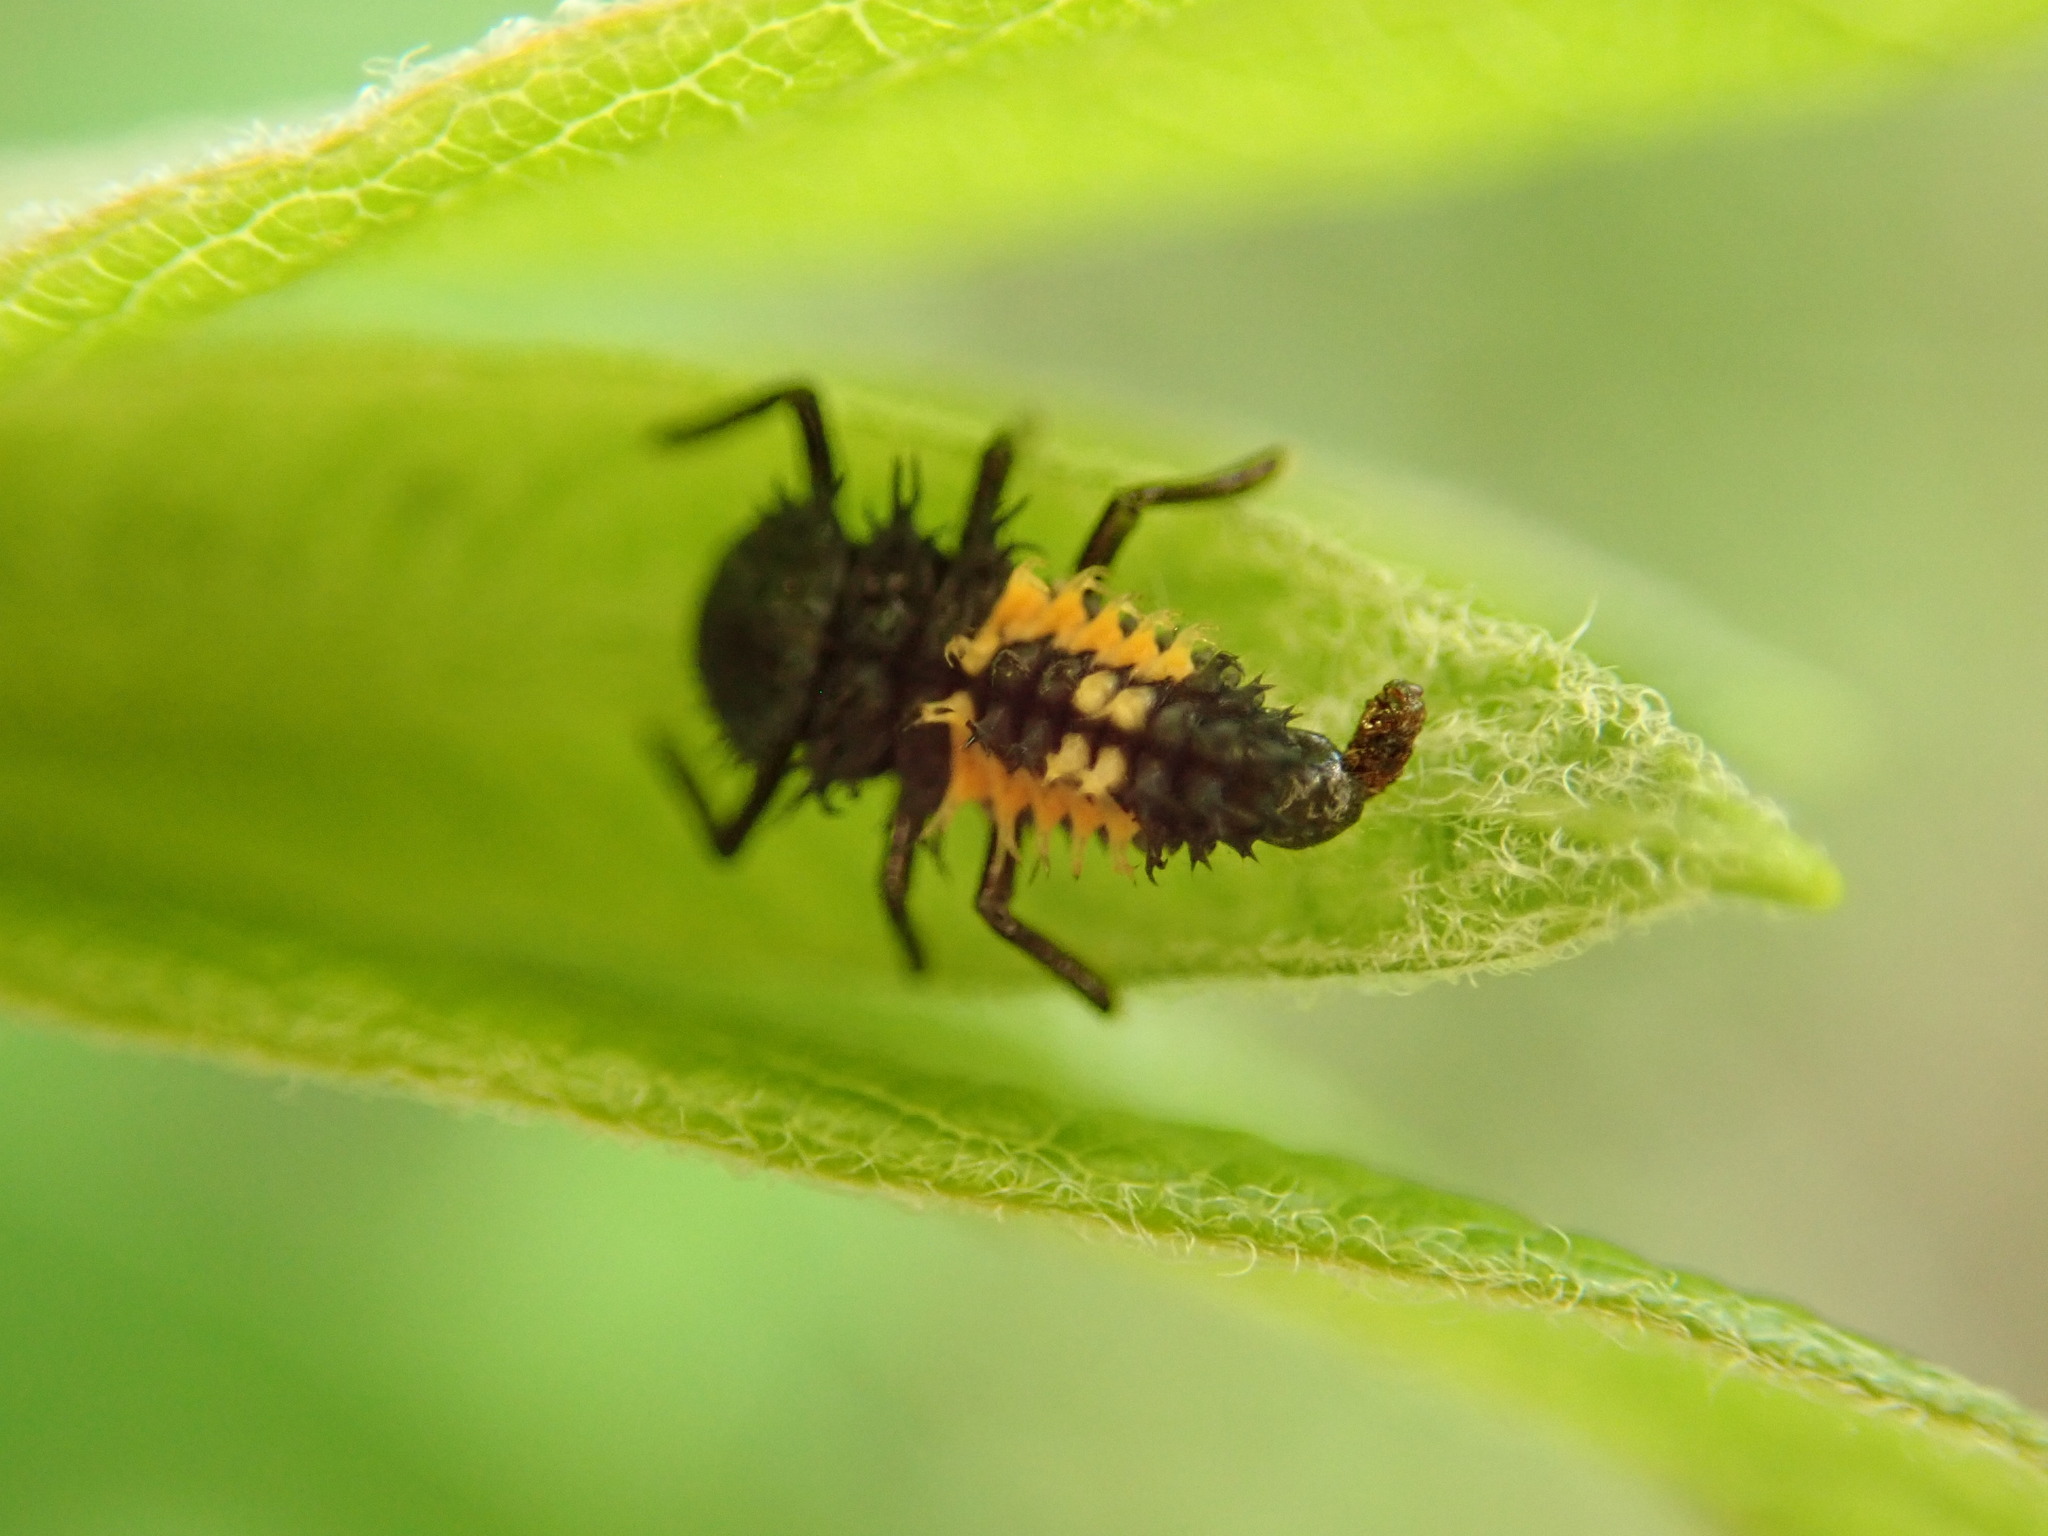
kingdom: Animalia
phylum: Arthropoda
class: Insecta
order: Coleoptera
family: Coccinellidae
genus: Harmonia
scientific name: Harmonia axyridis
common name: Harlequin ladybird
